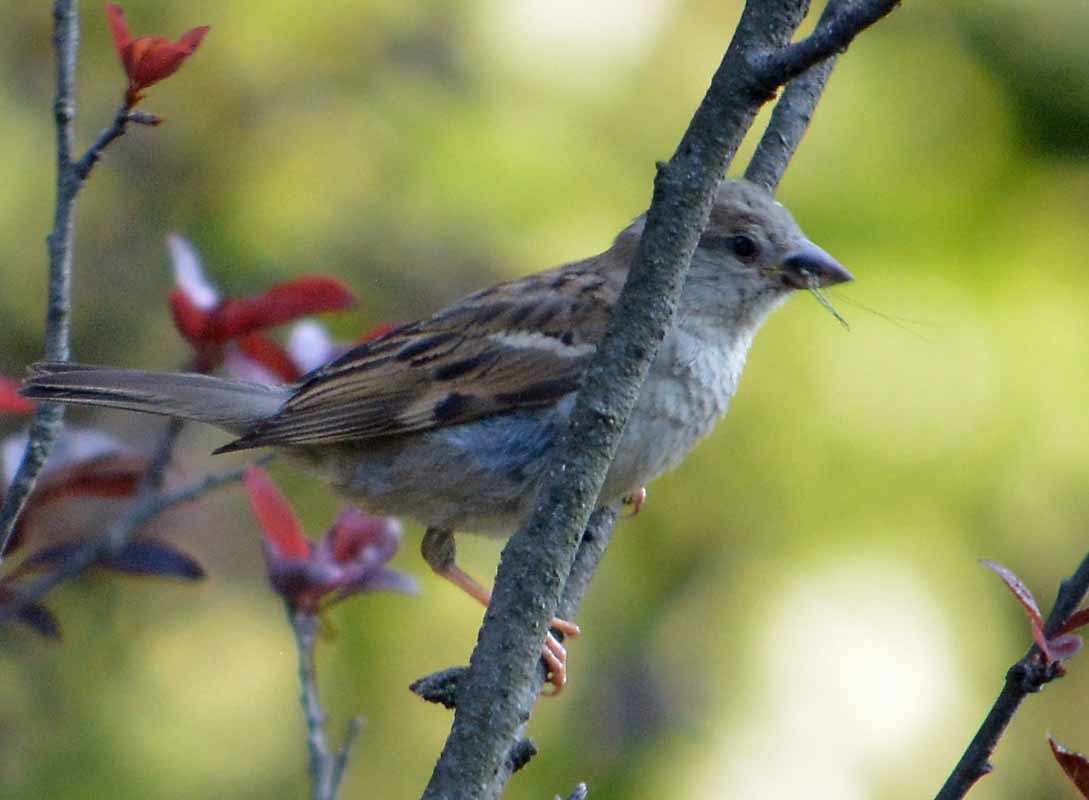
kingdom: Animalia
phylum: Chordata
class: Aves
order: Passeriformes
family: Passeridae
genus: Passer
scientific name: Passer domesticus
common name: House sparrow
